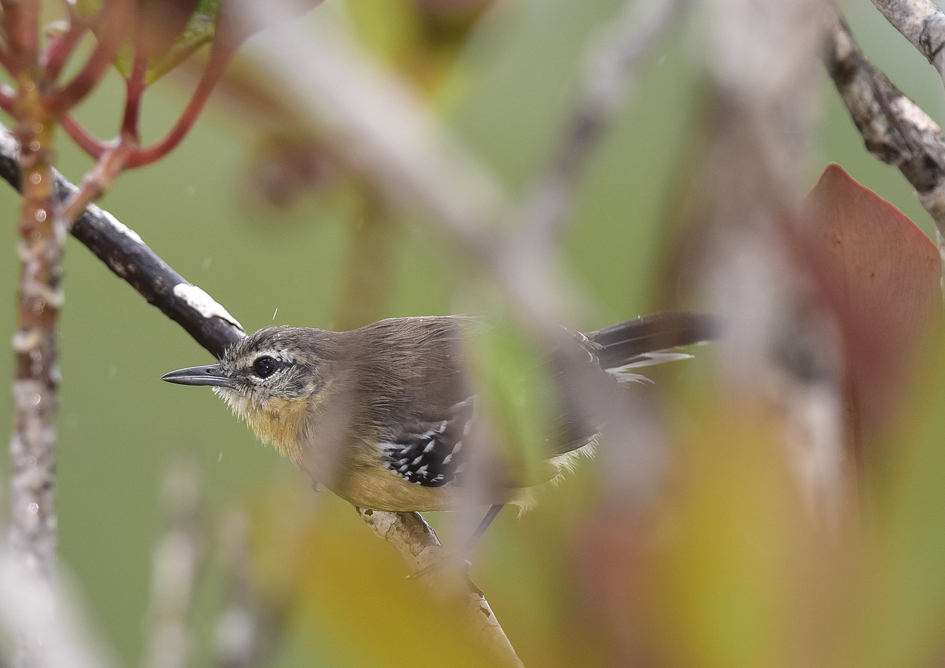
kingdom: Animalia
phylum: Chordata
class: Aves
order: Passeriformes
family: Thamnophilidae
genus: Formicivora
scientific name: Formicivora grisea
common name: Southern white-fringed antwren
